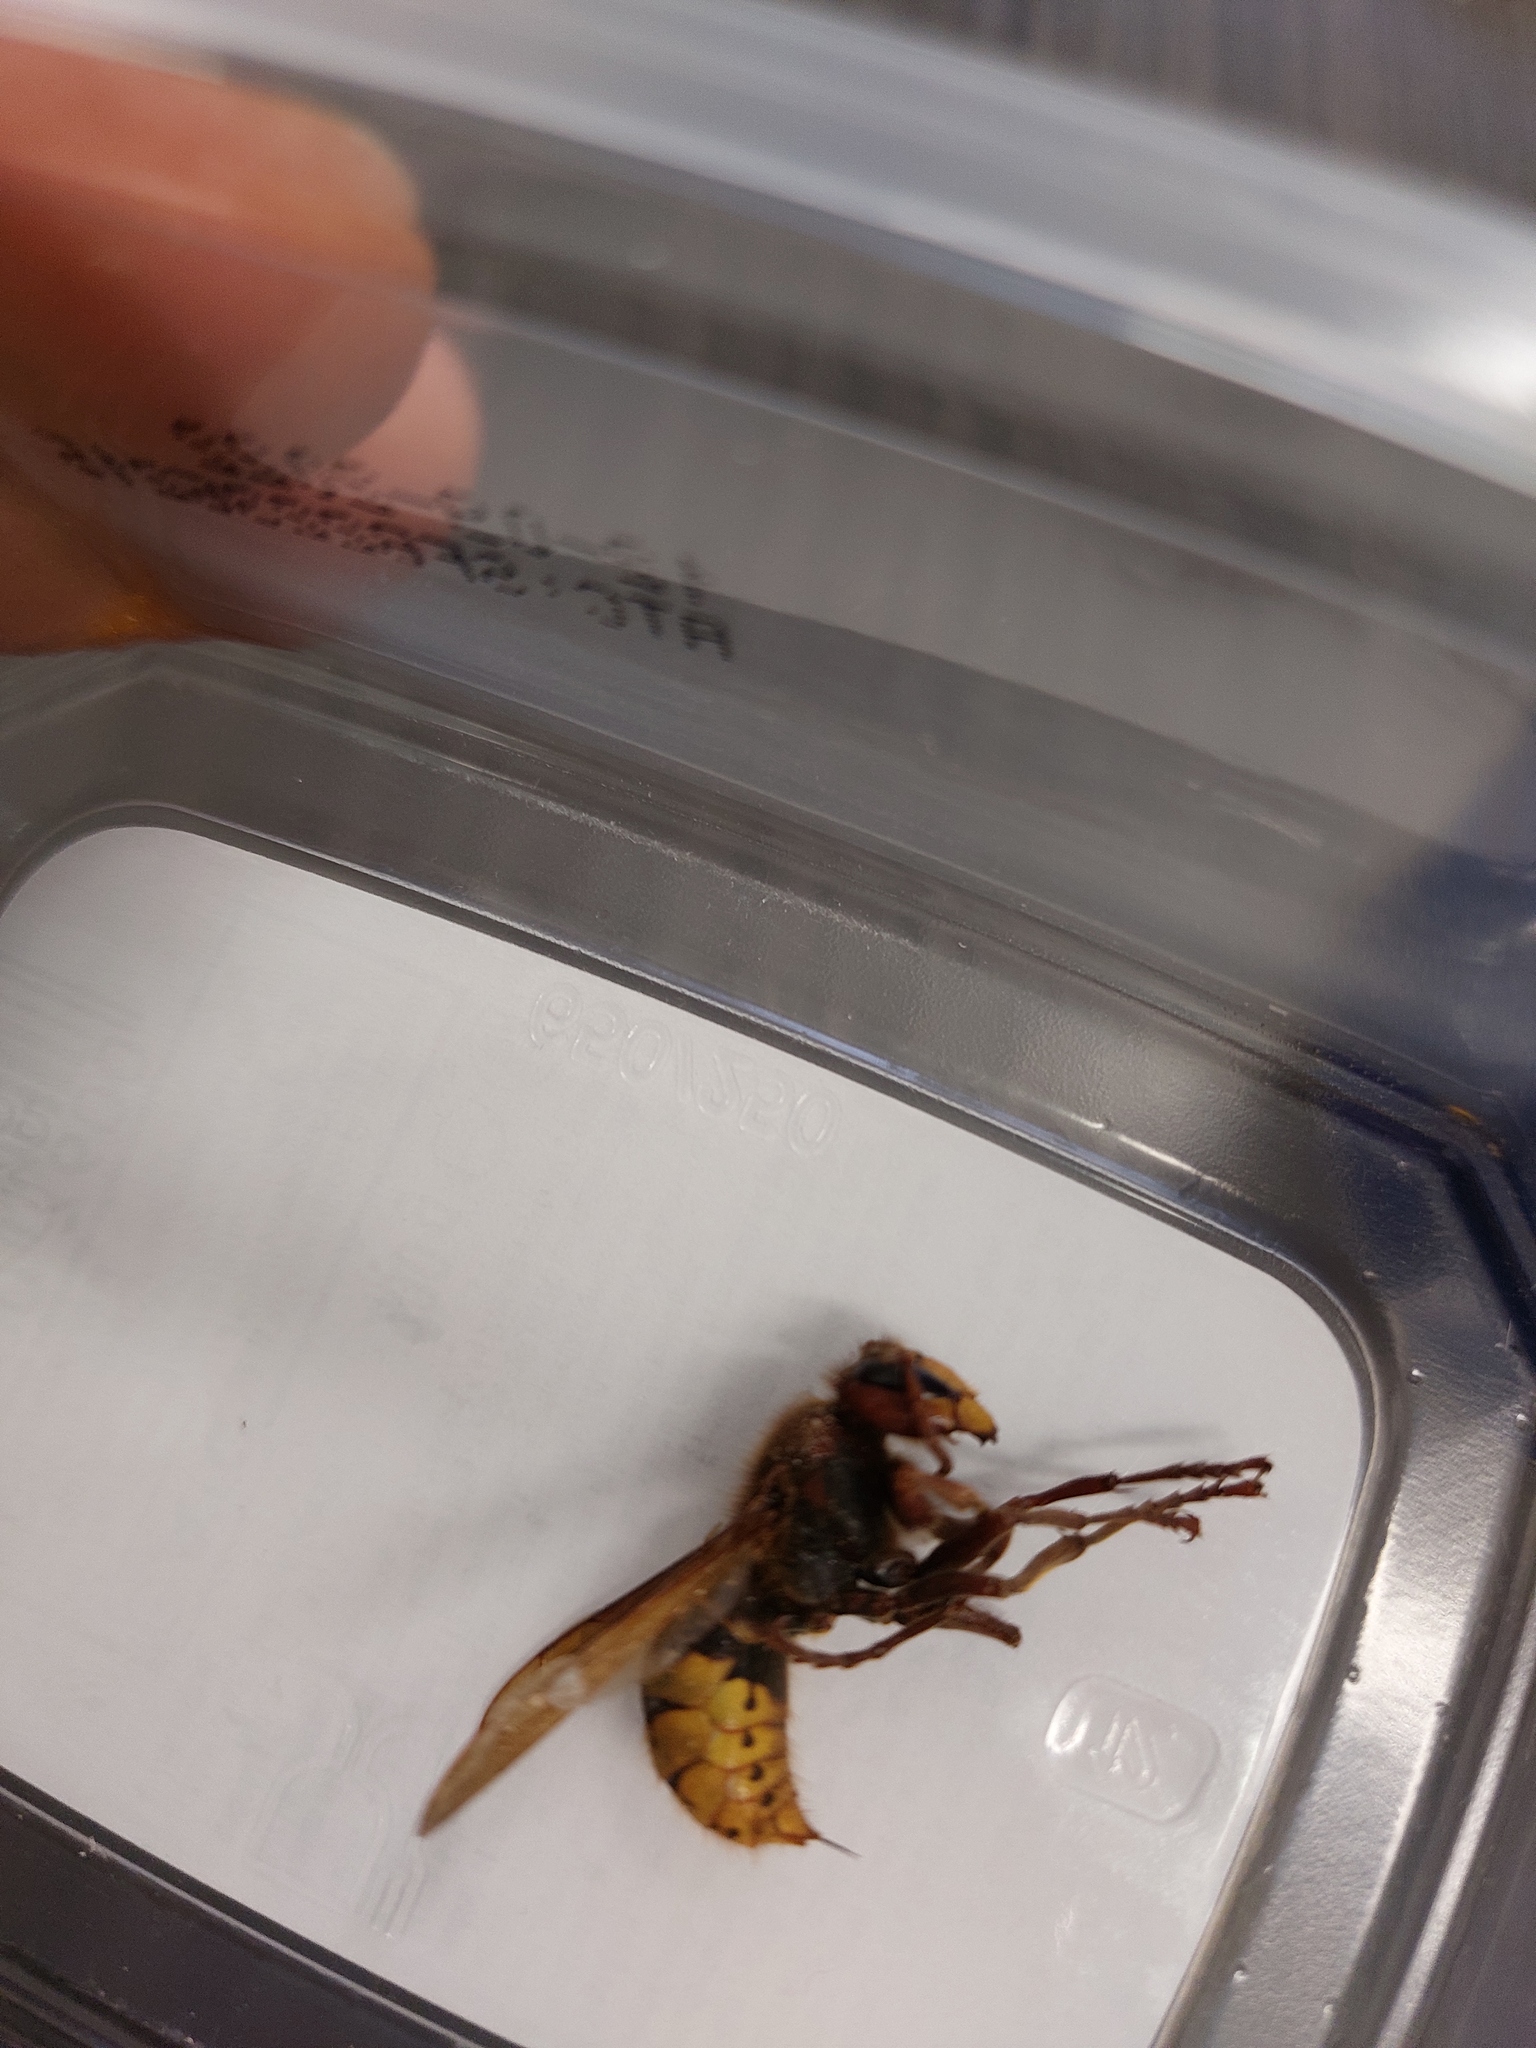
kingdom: Animalia
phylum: Arthropoda
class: Insecta
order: Hymenoptera
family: Vespidae
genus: Vespa
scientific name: Vespa crabro
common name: Hornet
